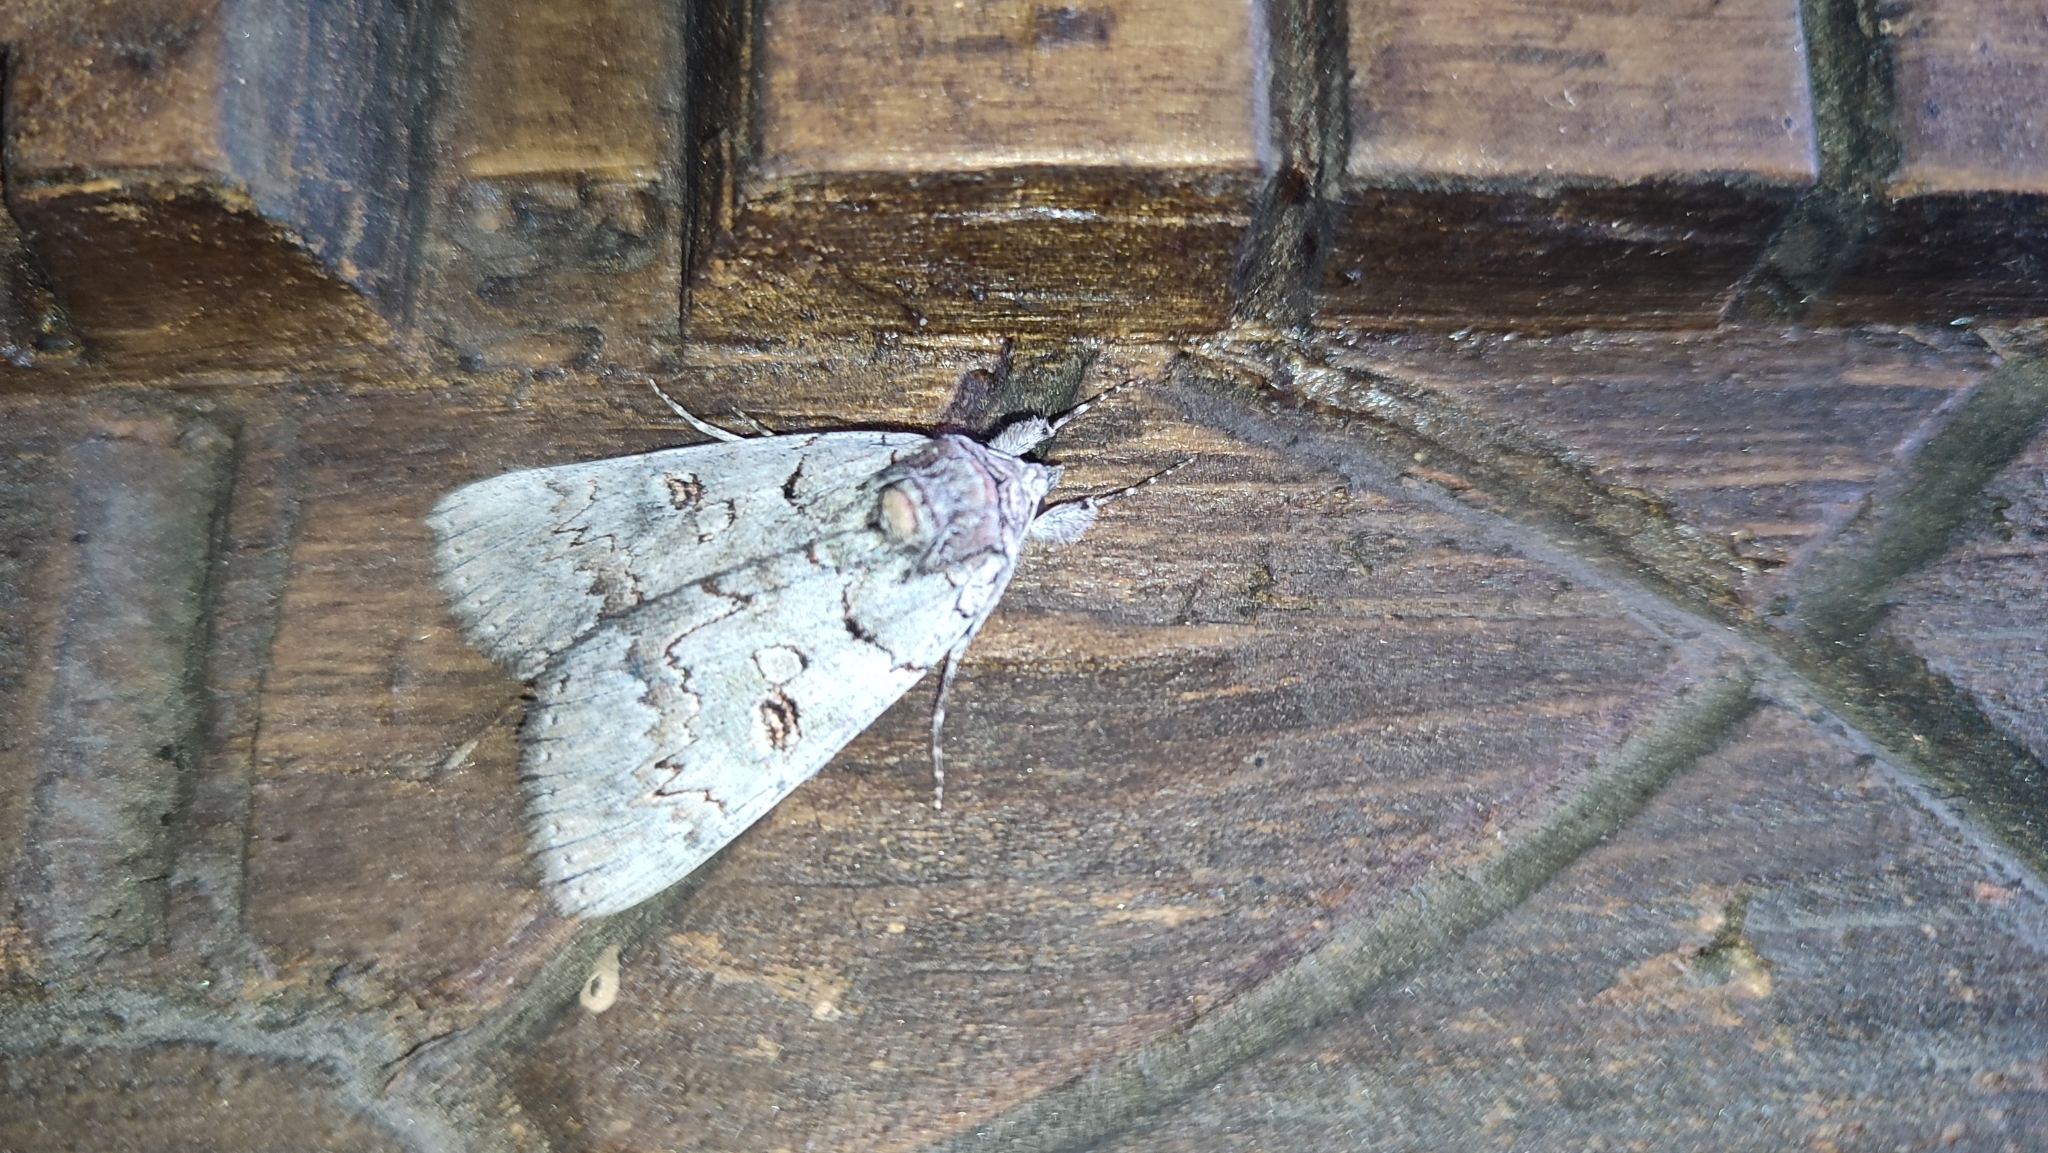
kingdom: Animalia
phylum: Arthropoda
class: Insecta
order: Lepidoptera
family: Erebidae
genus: Catocala
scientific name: Catocala pacta
